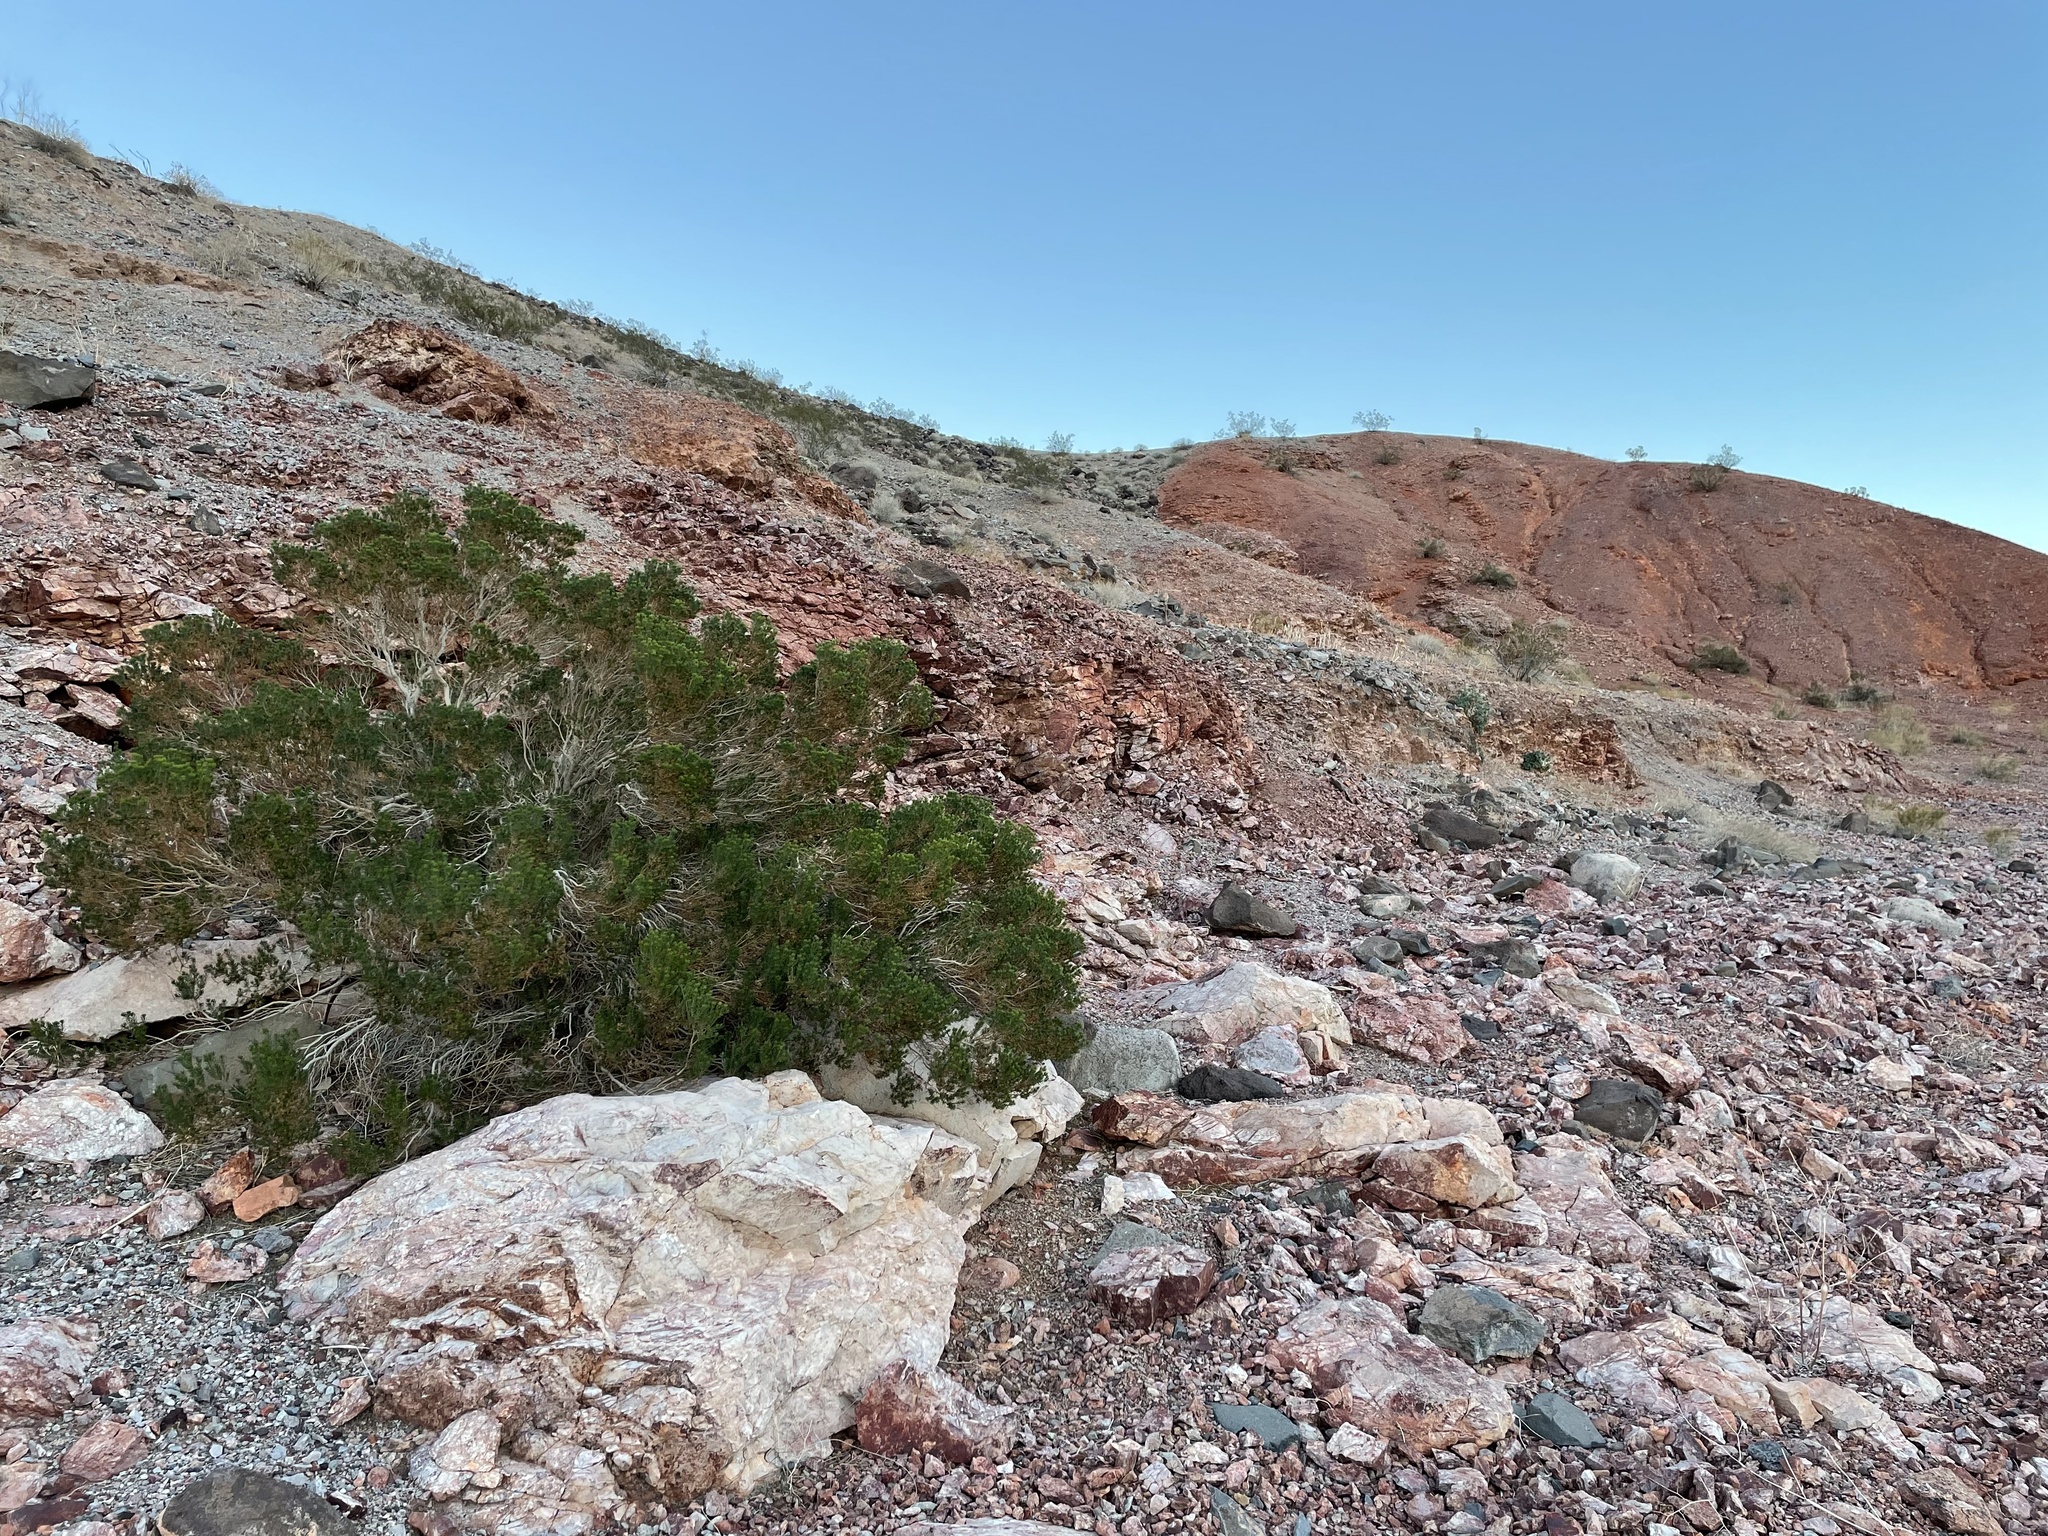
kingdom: Plantae
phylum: Tracheophyta
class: Magnoliopsida
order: Asterales
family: Asteraceae
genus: Peucephyllum
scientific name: Peucephyllum schottii
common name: Pygmy-cedar
